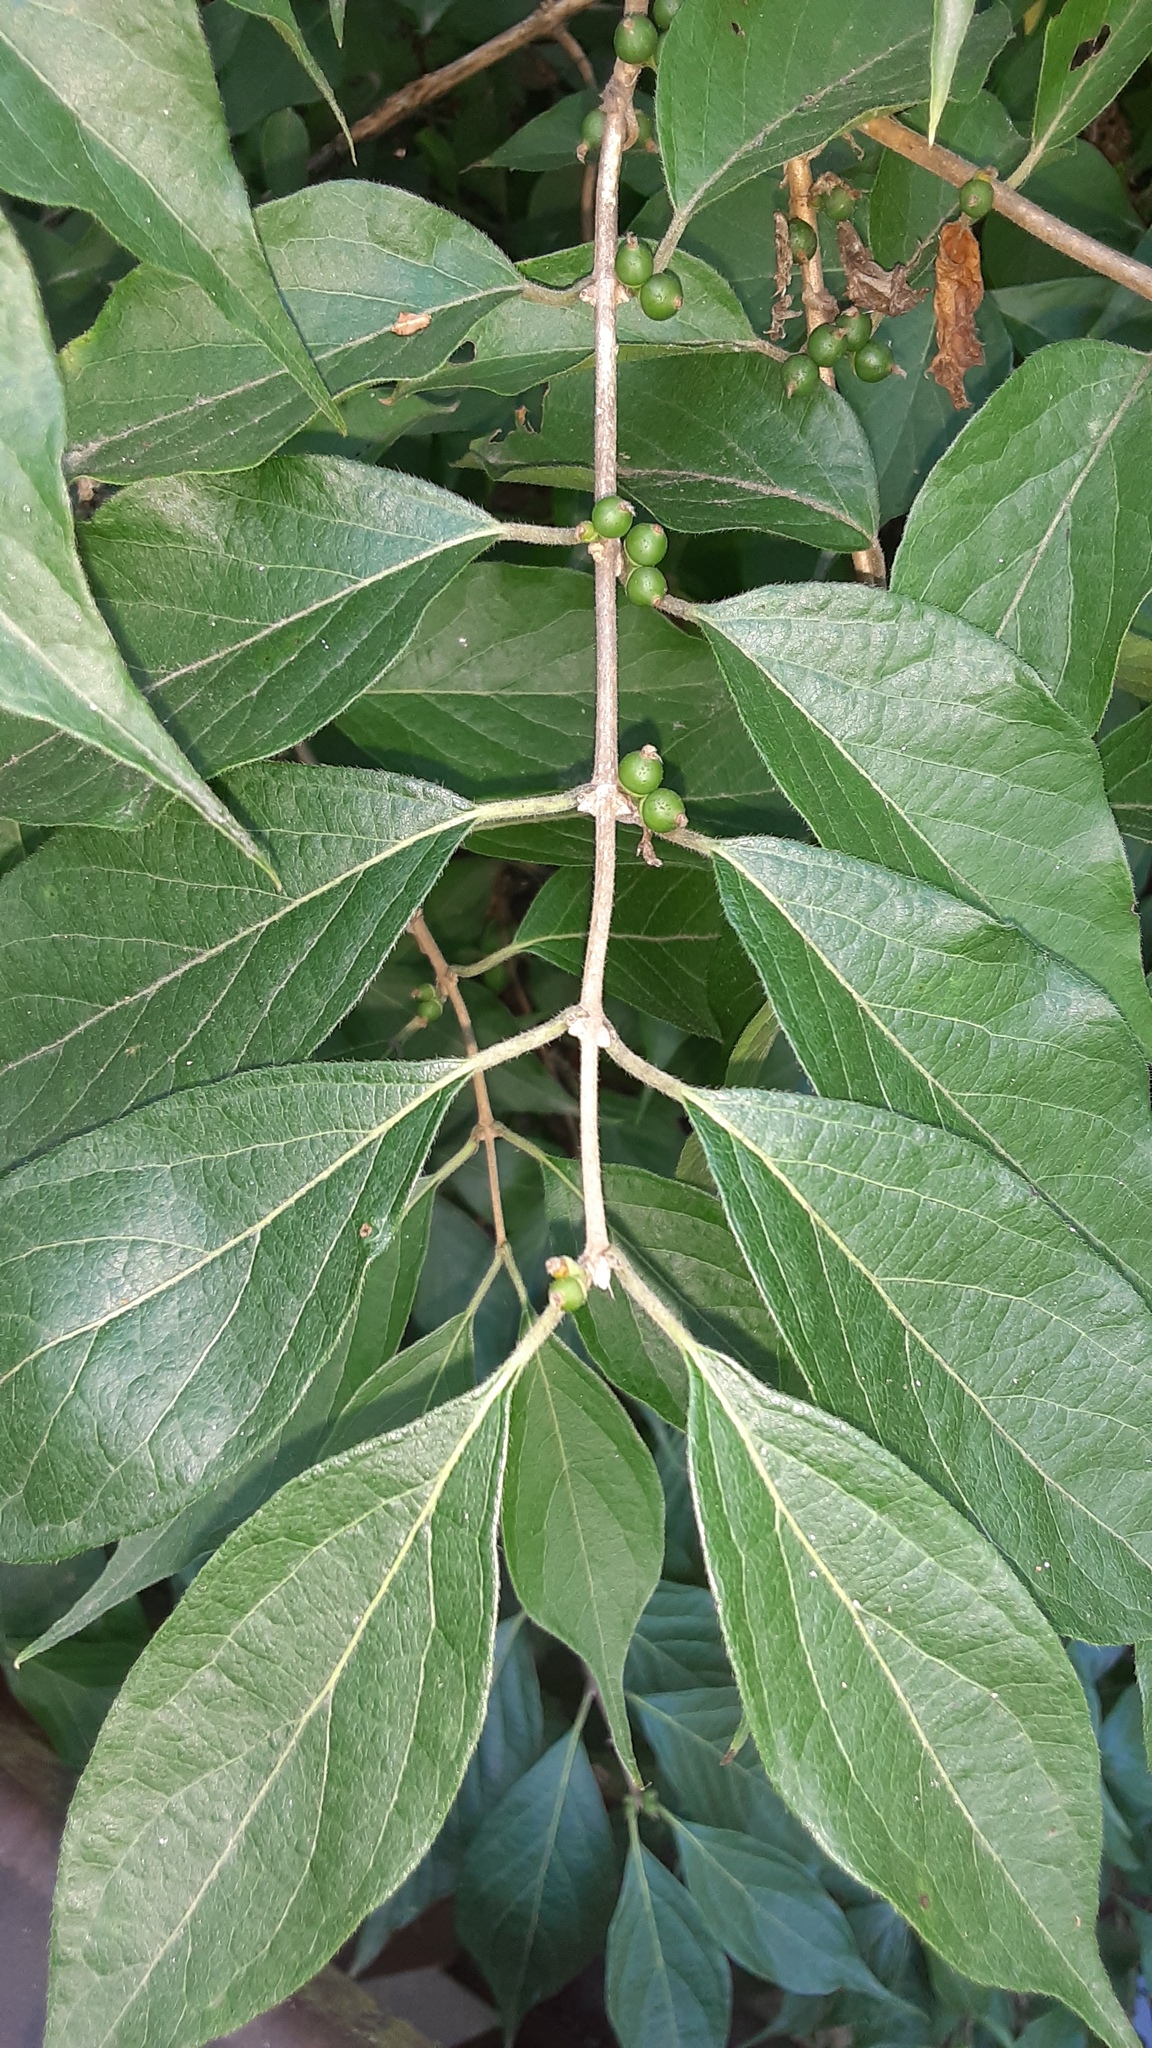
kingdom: Plantae
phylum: Tracheophyta
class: Magnoliopsida
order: Dipsacales
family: Caprifoliaceae
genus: Lonicera
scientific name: Lonicera maackii
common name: Amur honeysuckle
